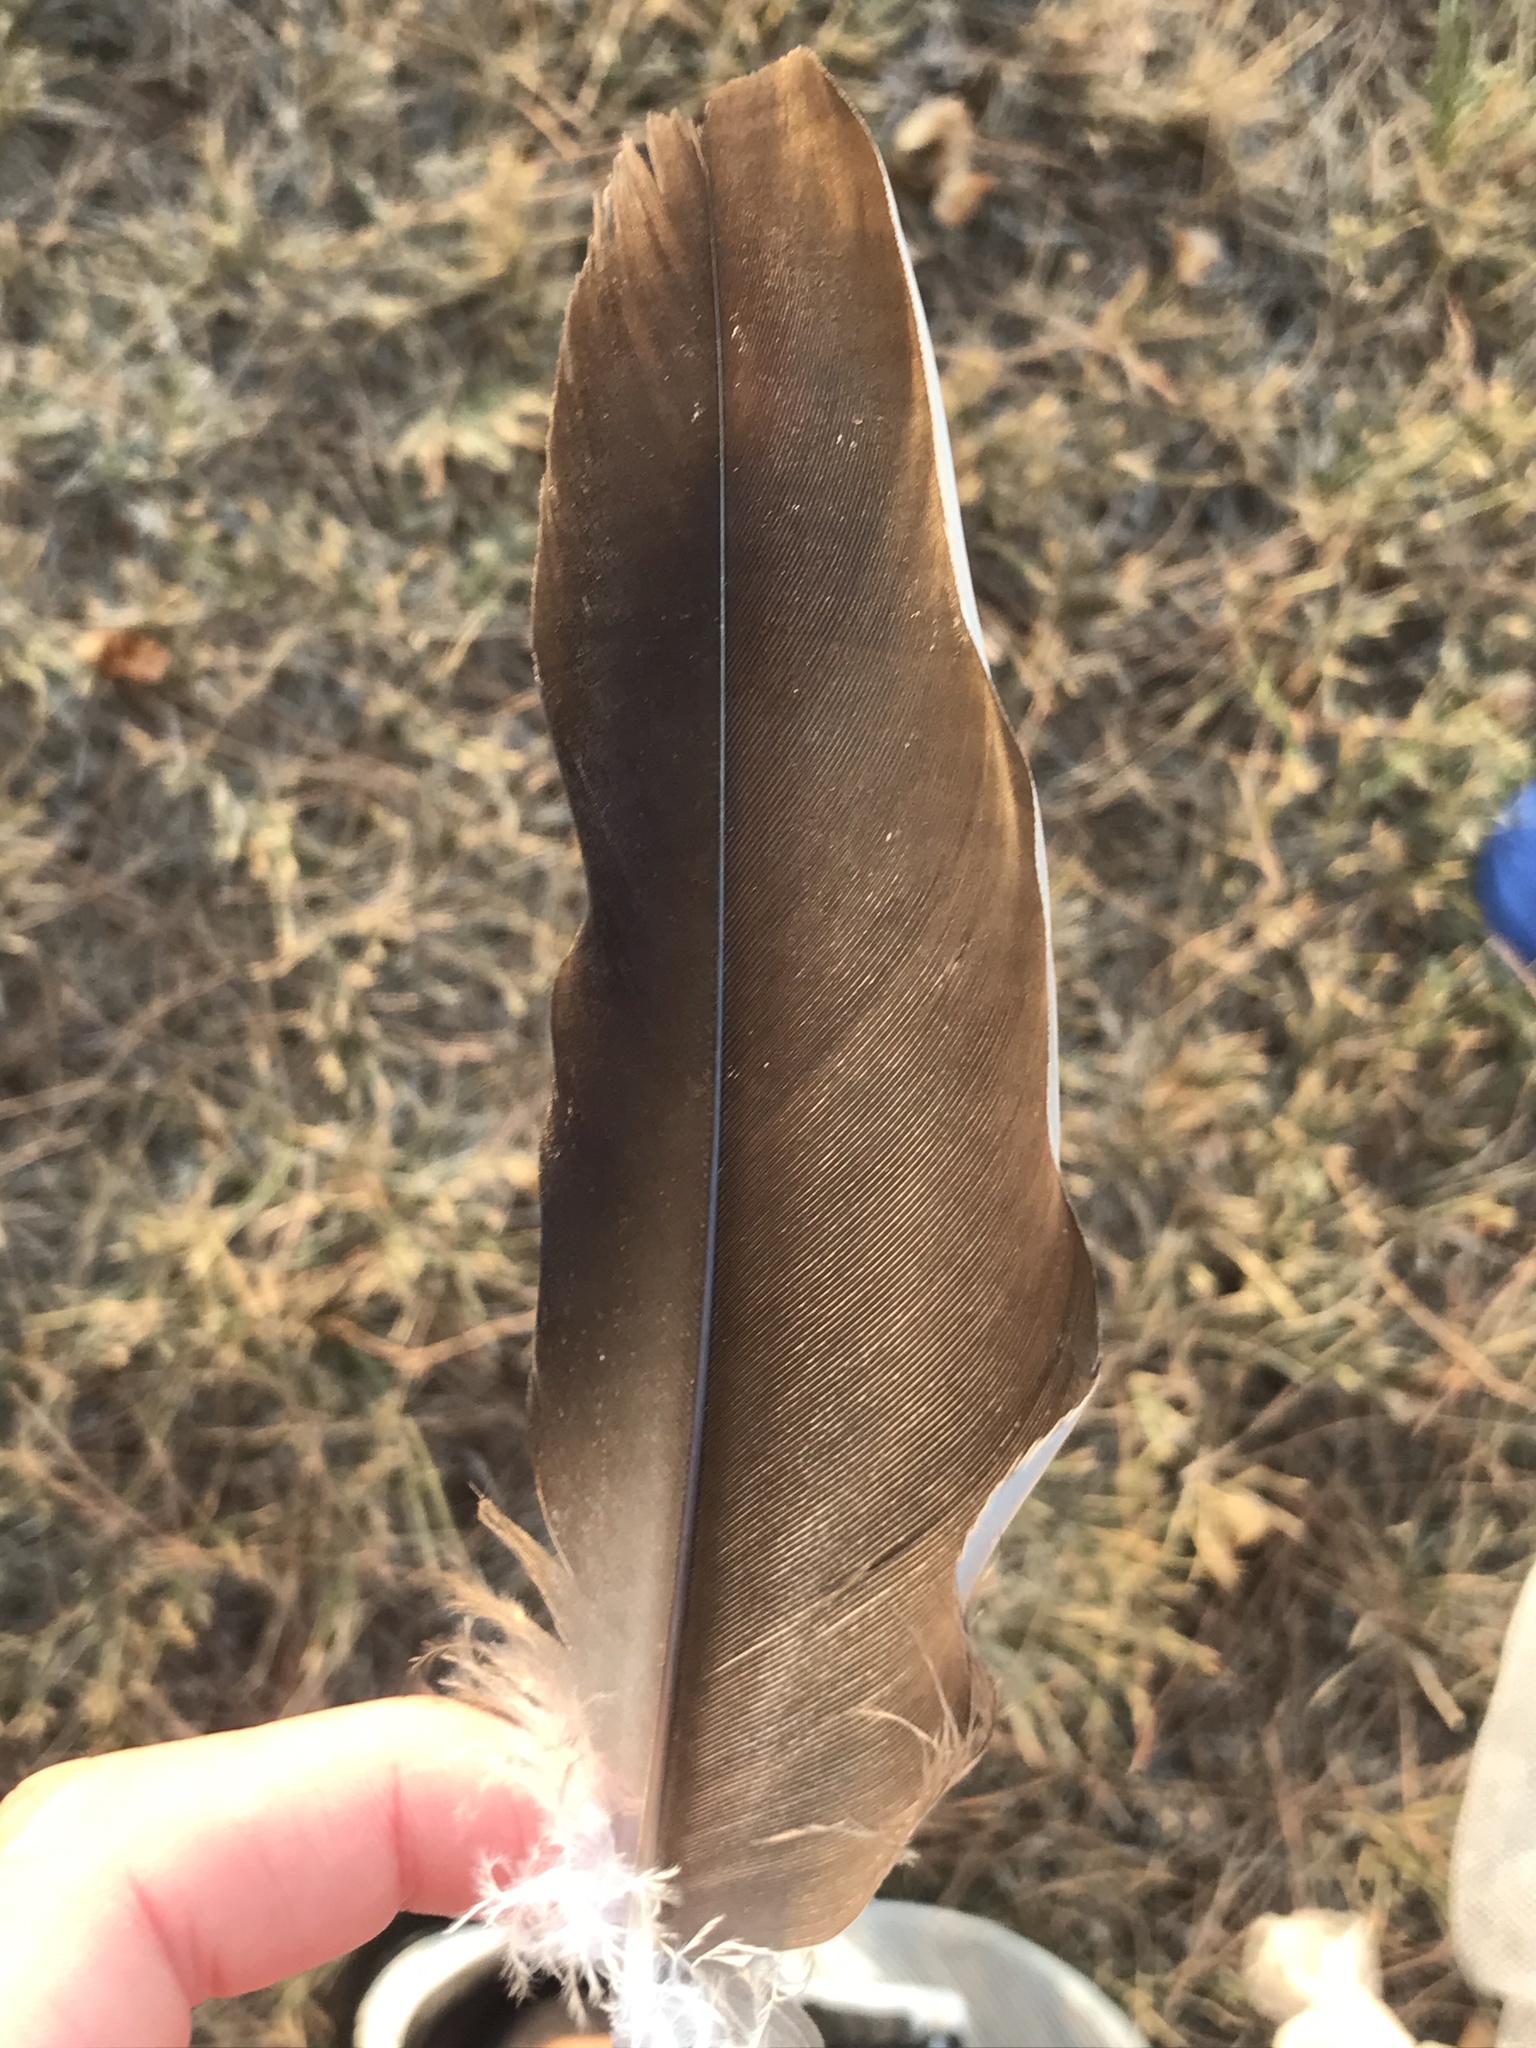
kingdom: Animalia
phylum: Chordata
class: Aves
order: Accipitriformes
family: Cathartidae
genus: Cathartes
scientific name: Cathartes aura
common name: Turkey vulture
